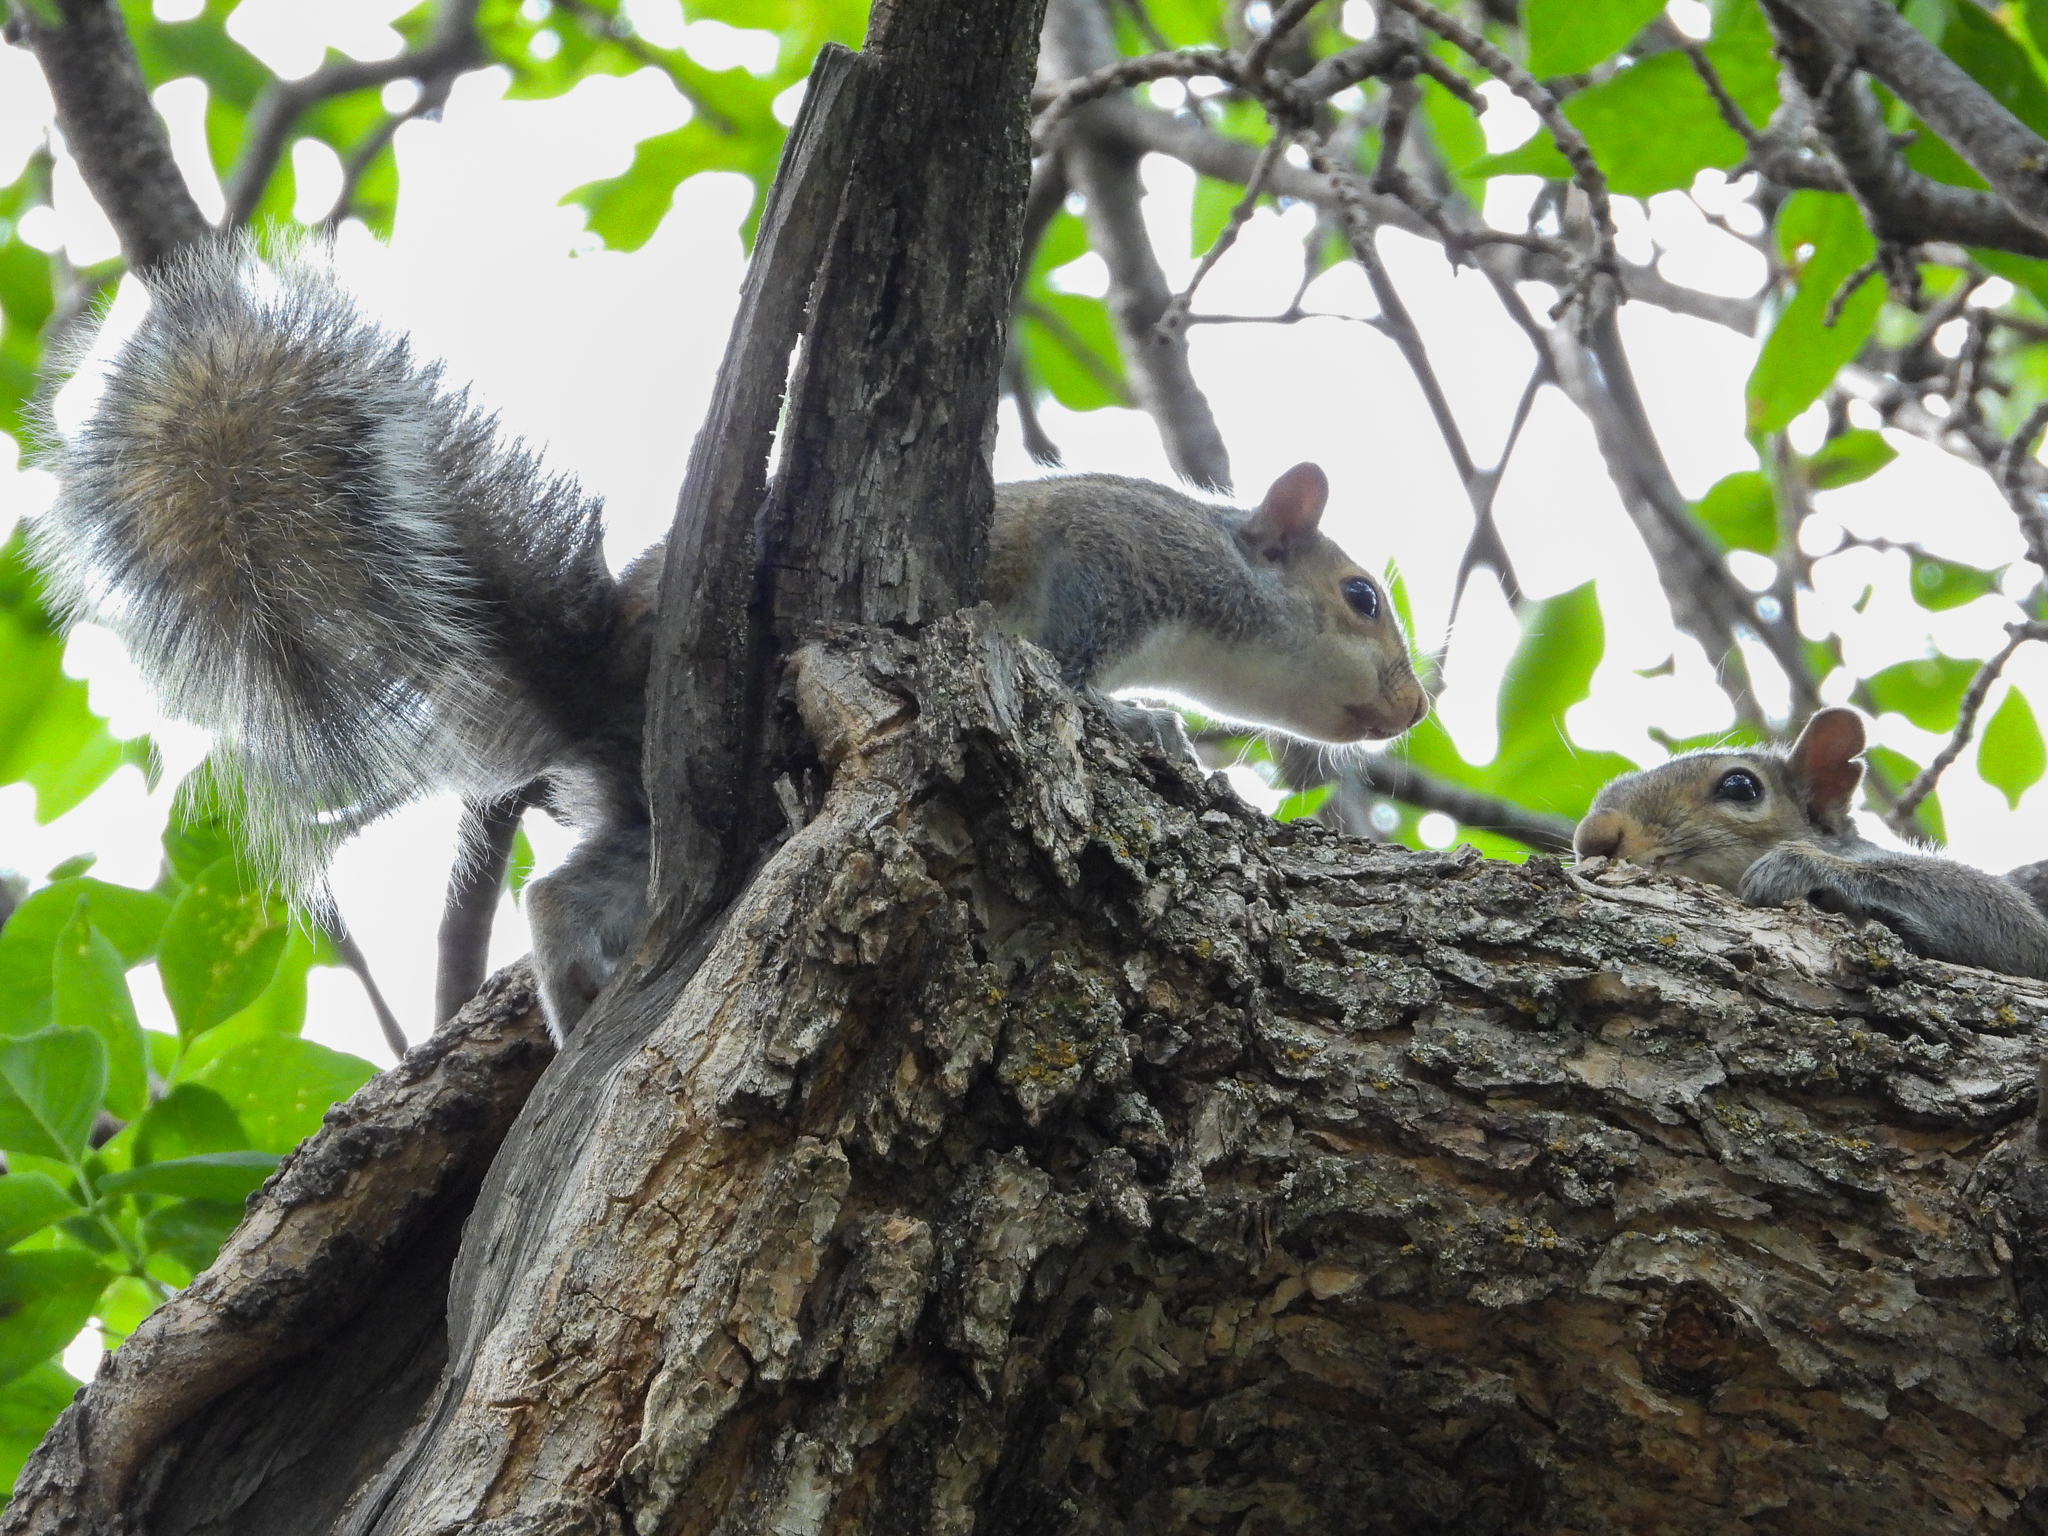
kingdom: Animalia
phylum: Chordata
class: Mammalia
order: Rodentia
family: Sciuridae
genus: Sciurus
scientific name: Sciurus carolinensis
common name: Eastern gray squirrel
